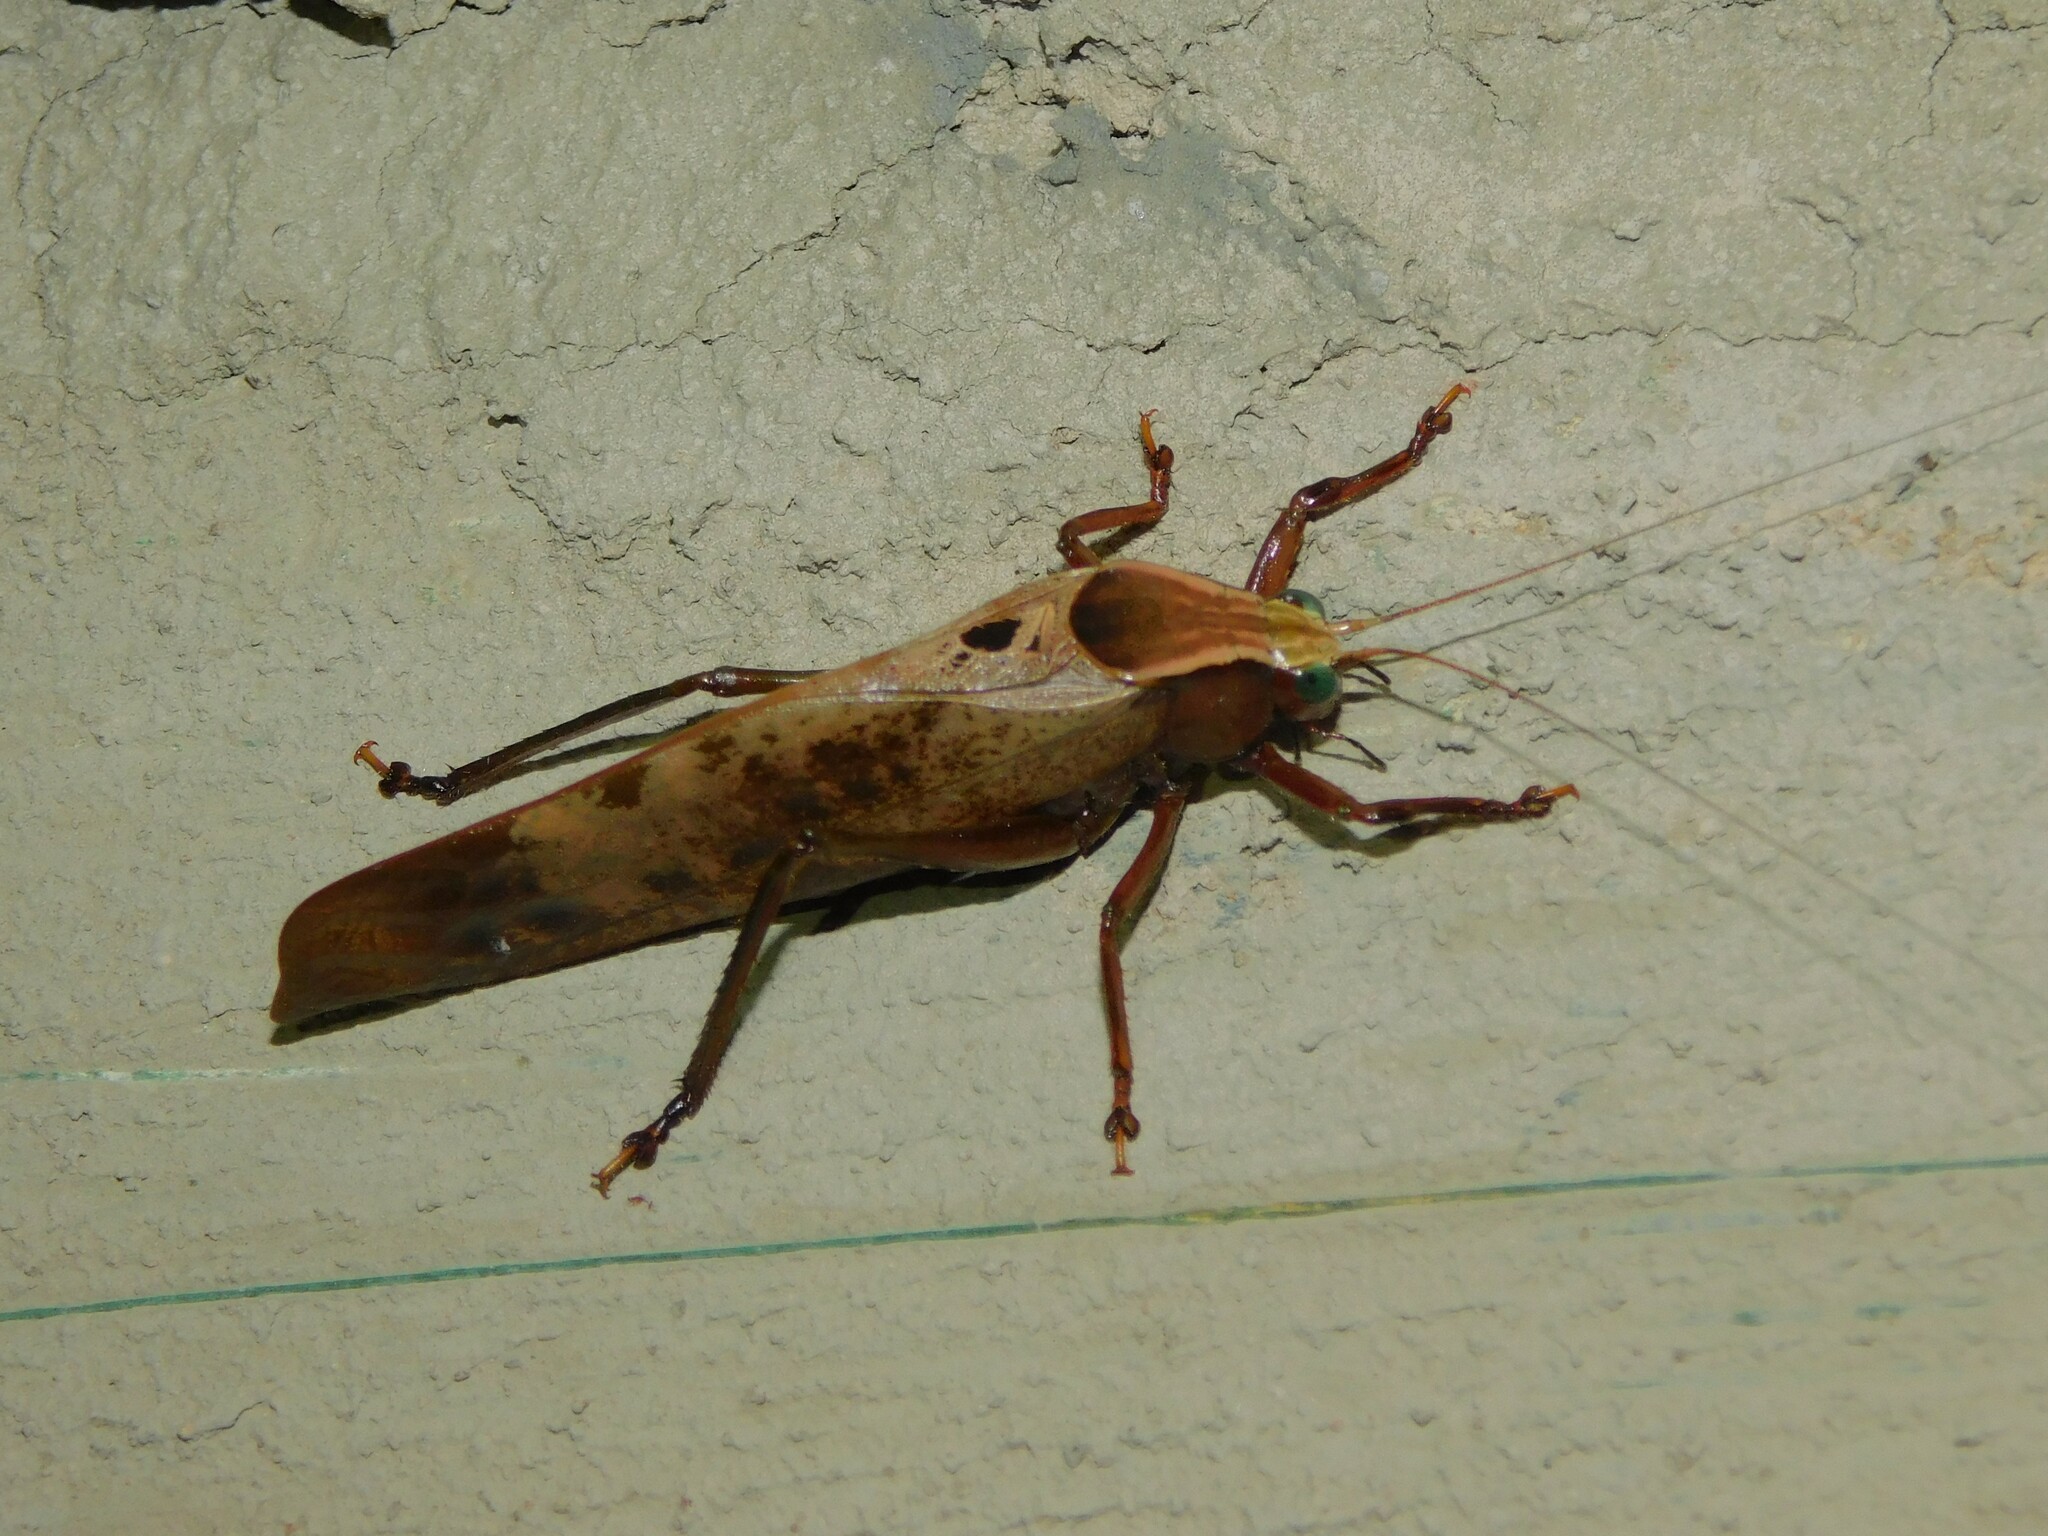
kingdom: Animalia
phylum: Arthropoda
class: Insecta
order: Orthoptera
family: Tettigoniidae
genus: Enochletica
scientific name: Enochletica ostentatrix
